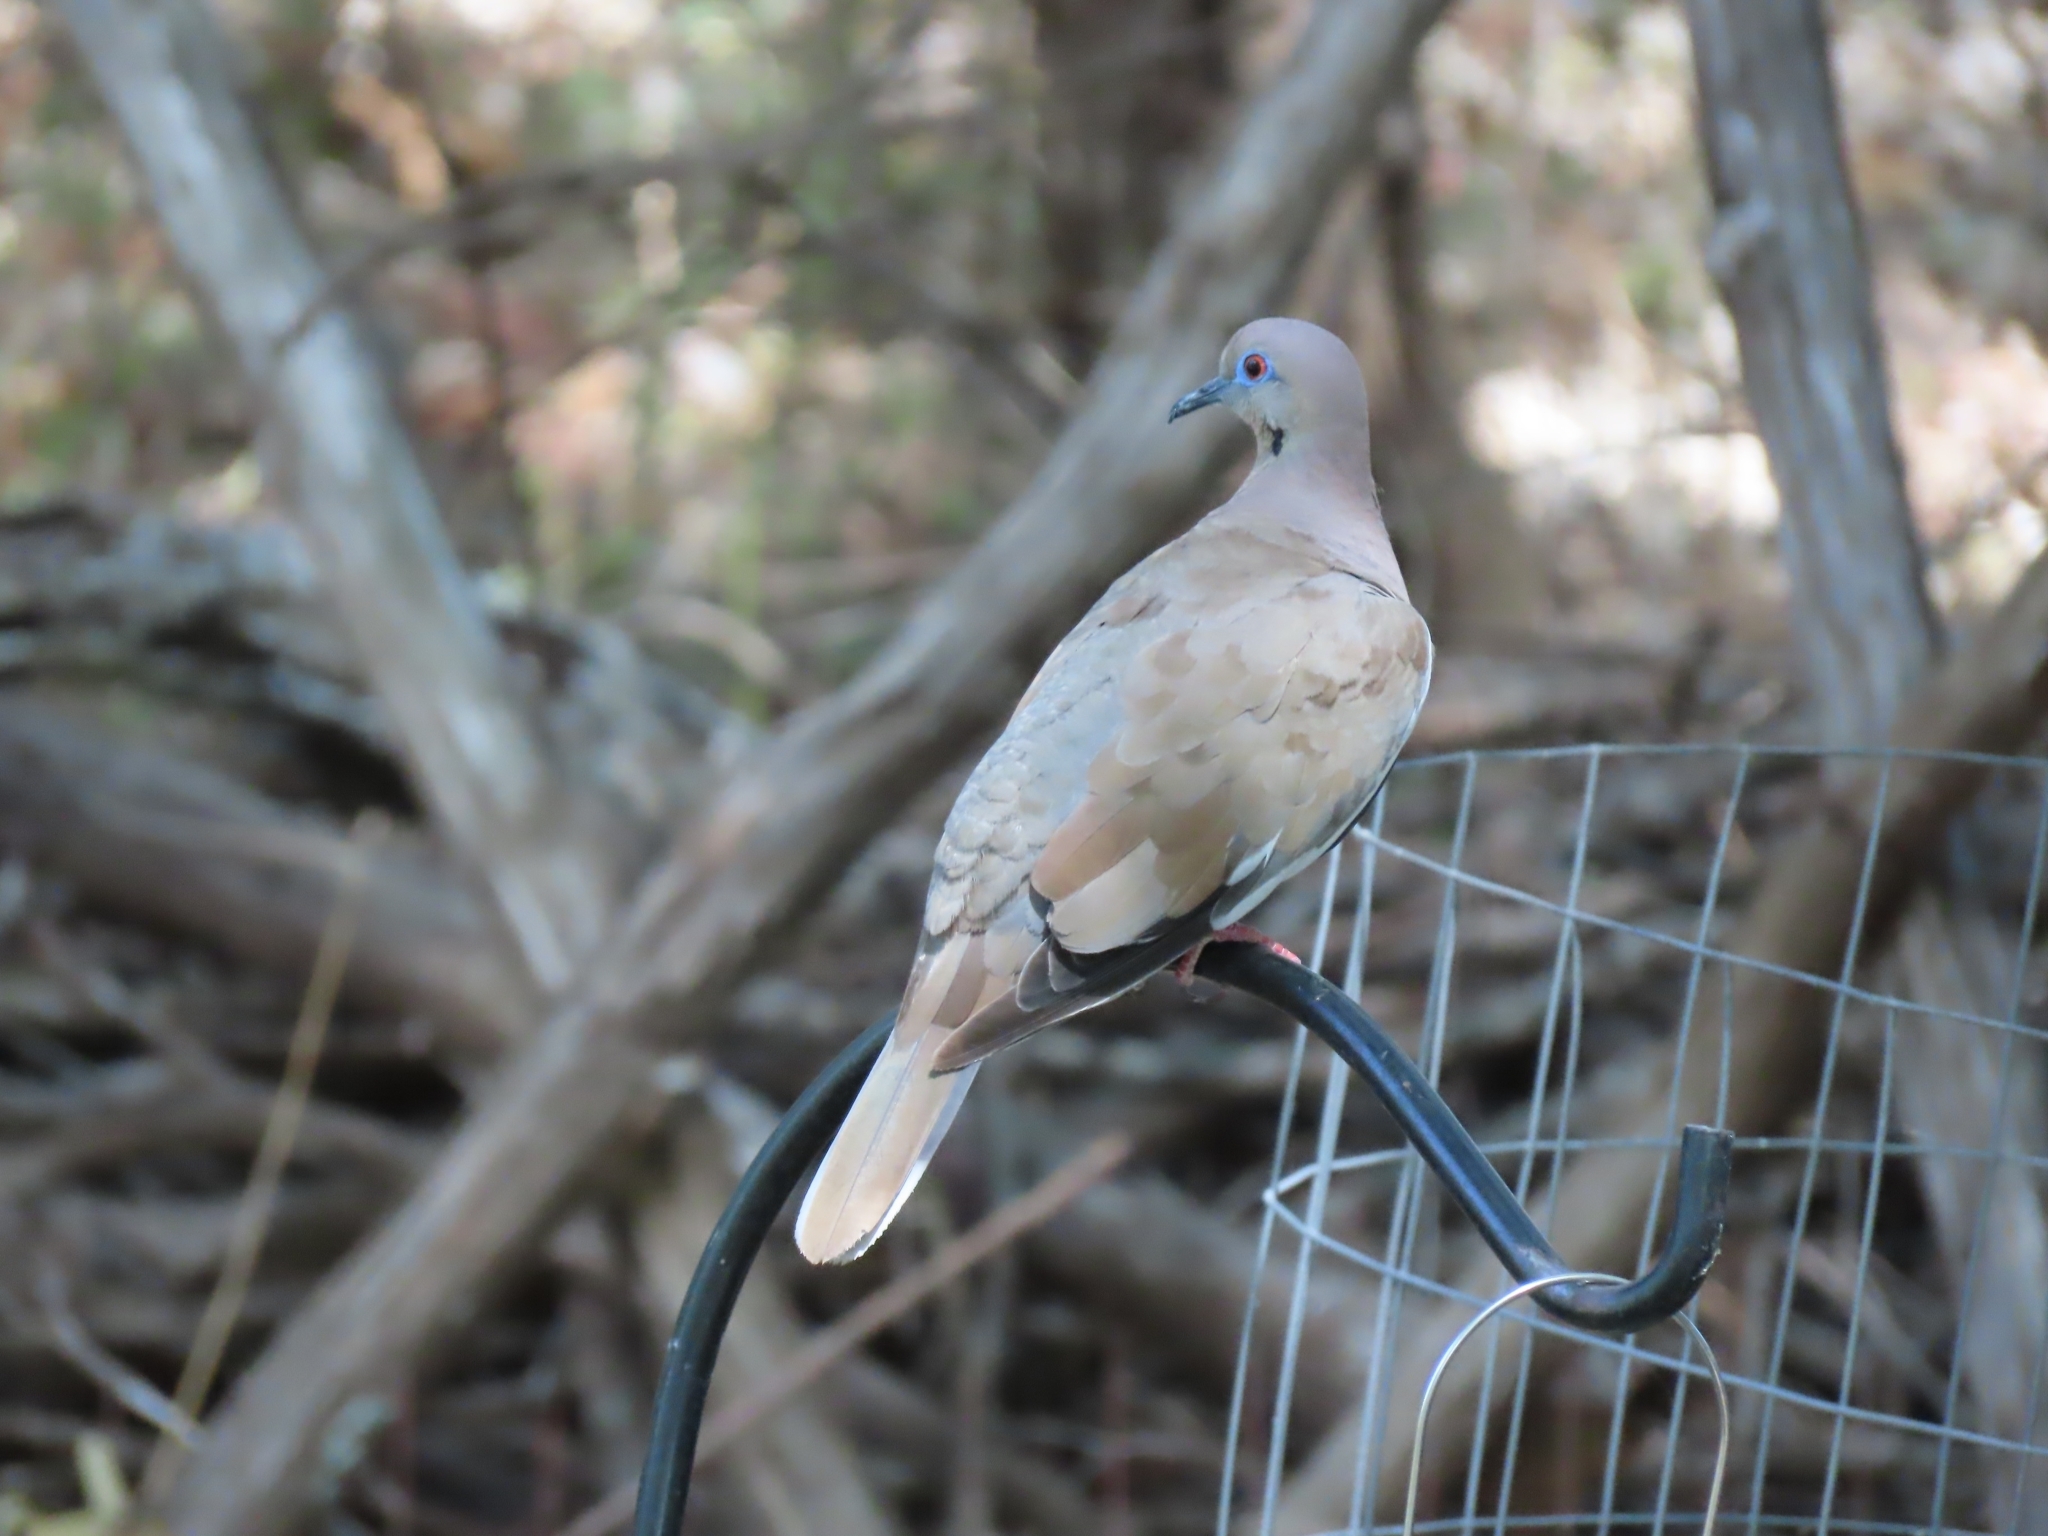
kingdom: Animalia
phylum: Chordata
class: Aves
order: Columbiformes
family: Columbidae
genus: Zenaida
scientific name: Zenaida asiatica
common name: White-winged dove
